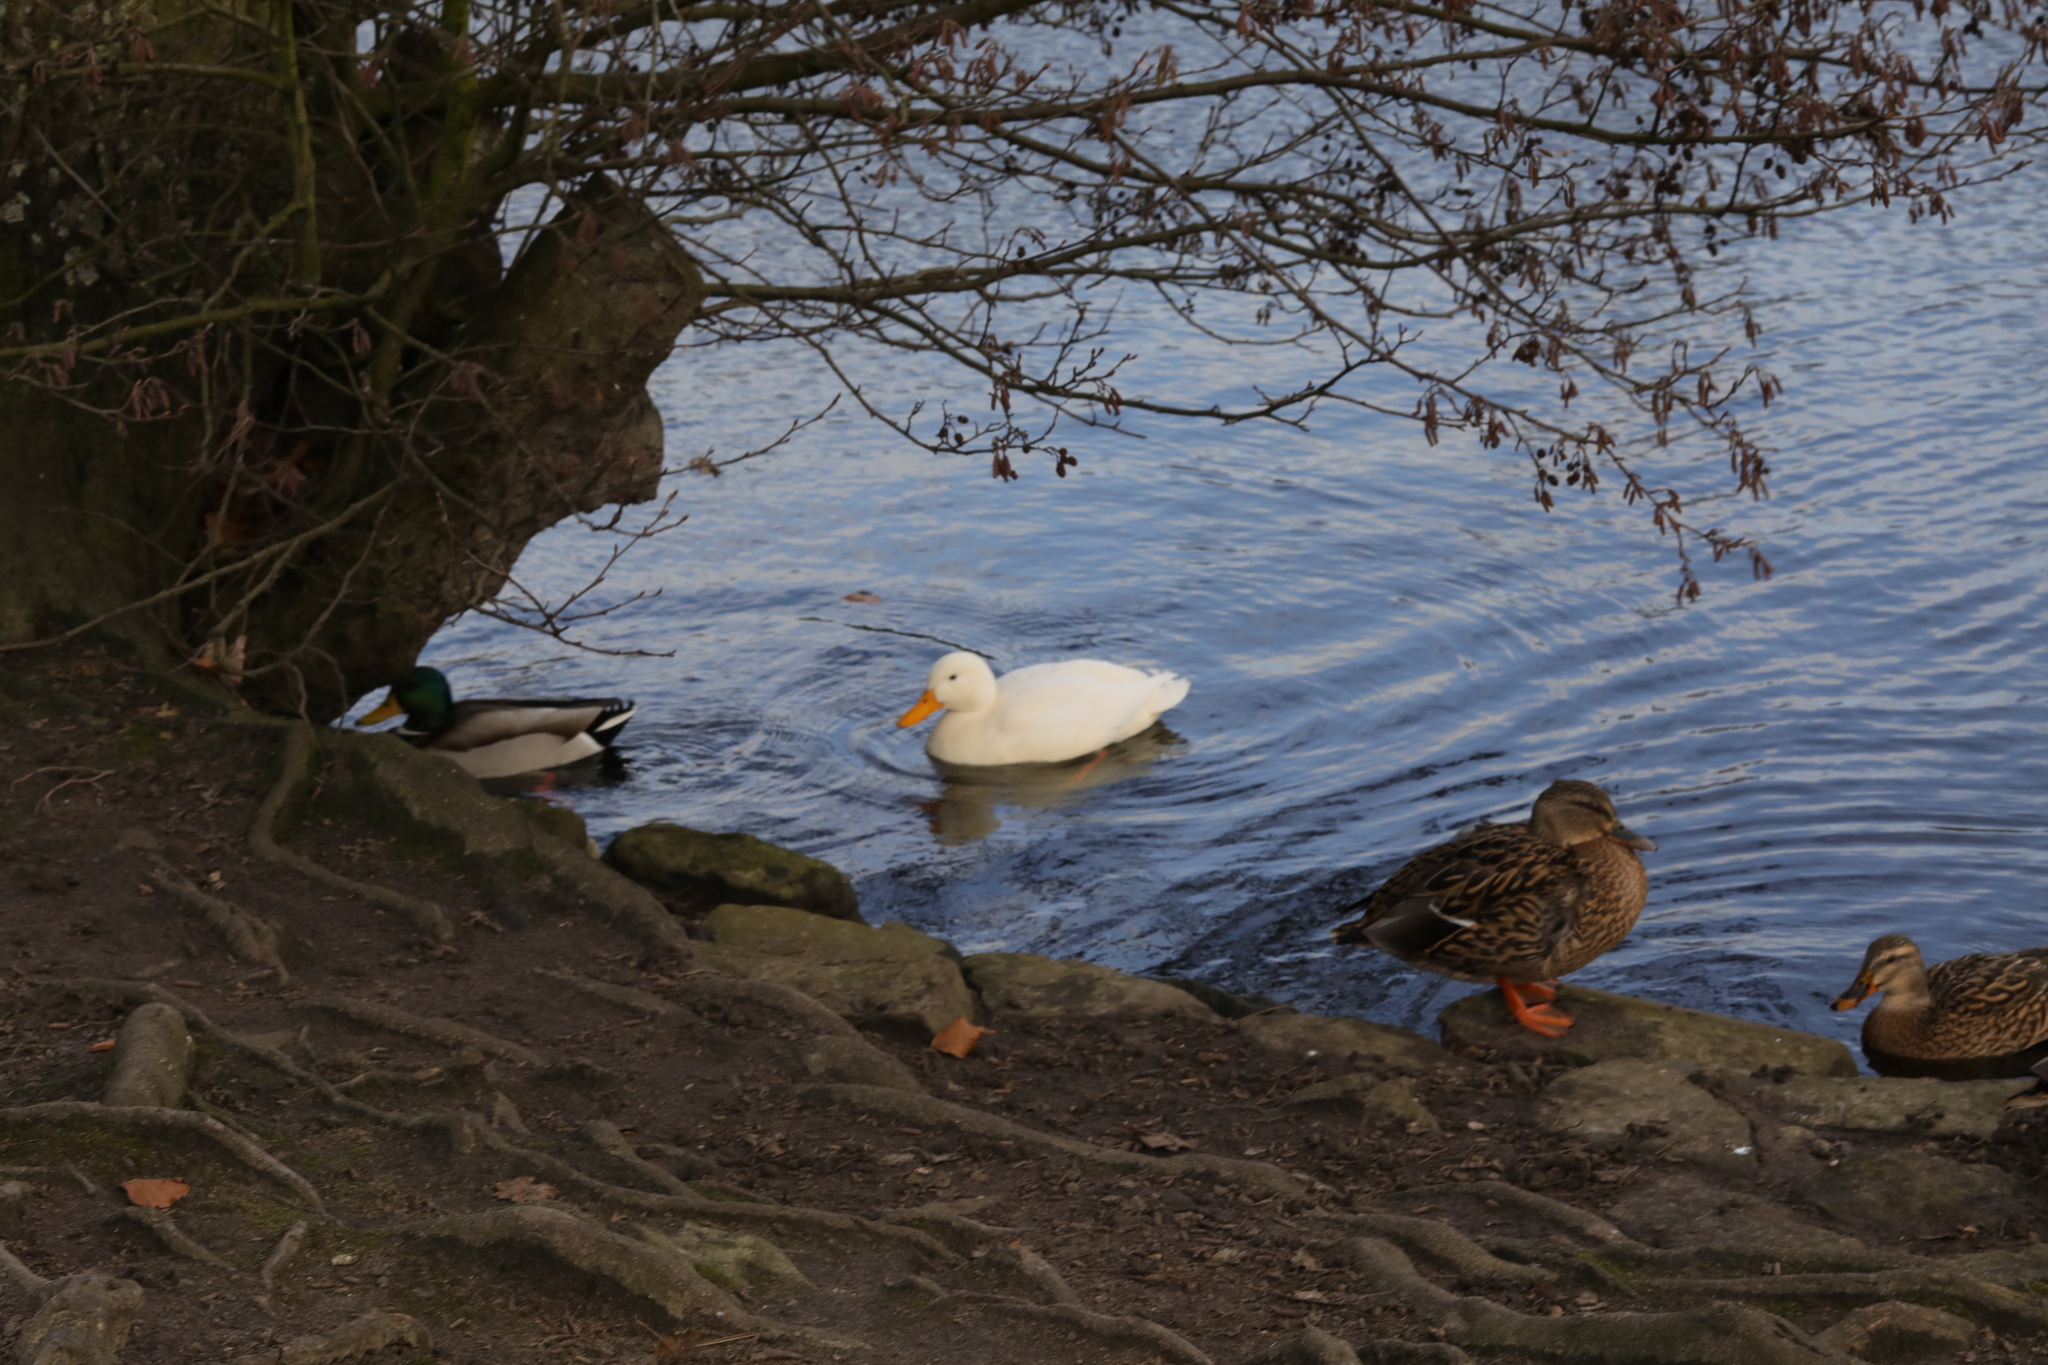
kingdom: Animalia
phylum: Chordata
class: Aves
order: Anseriformes
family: Anatidae
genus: Anas
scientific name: Anas platyrhynchos
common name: Mallard
